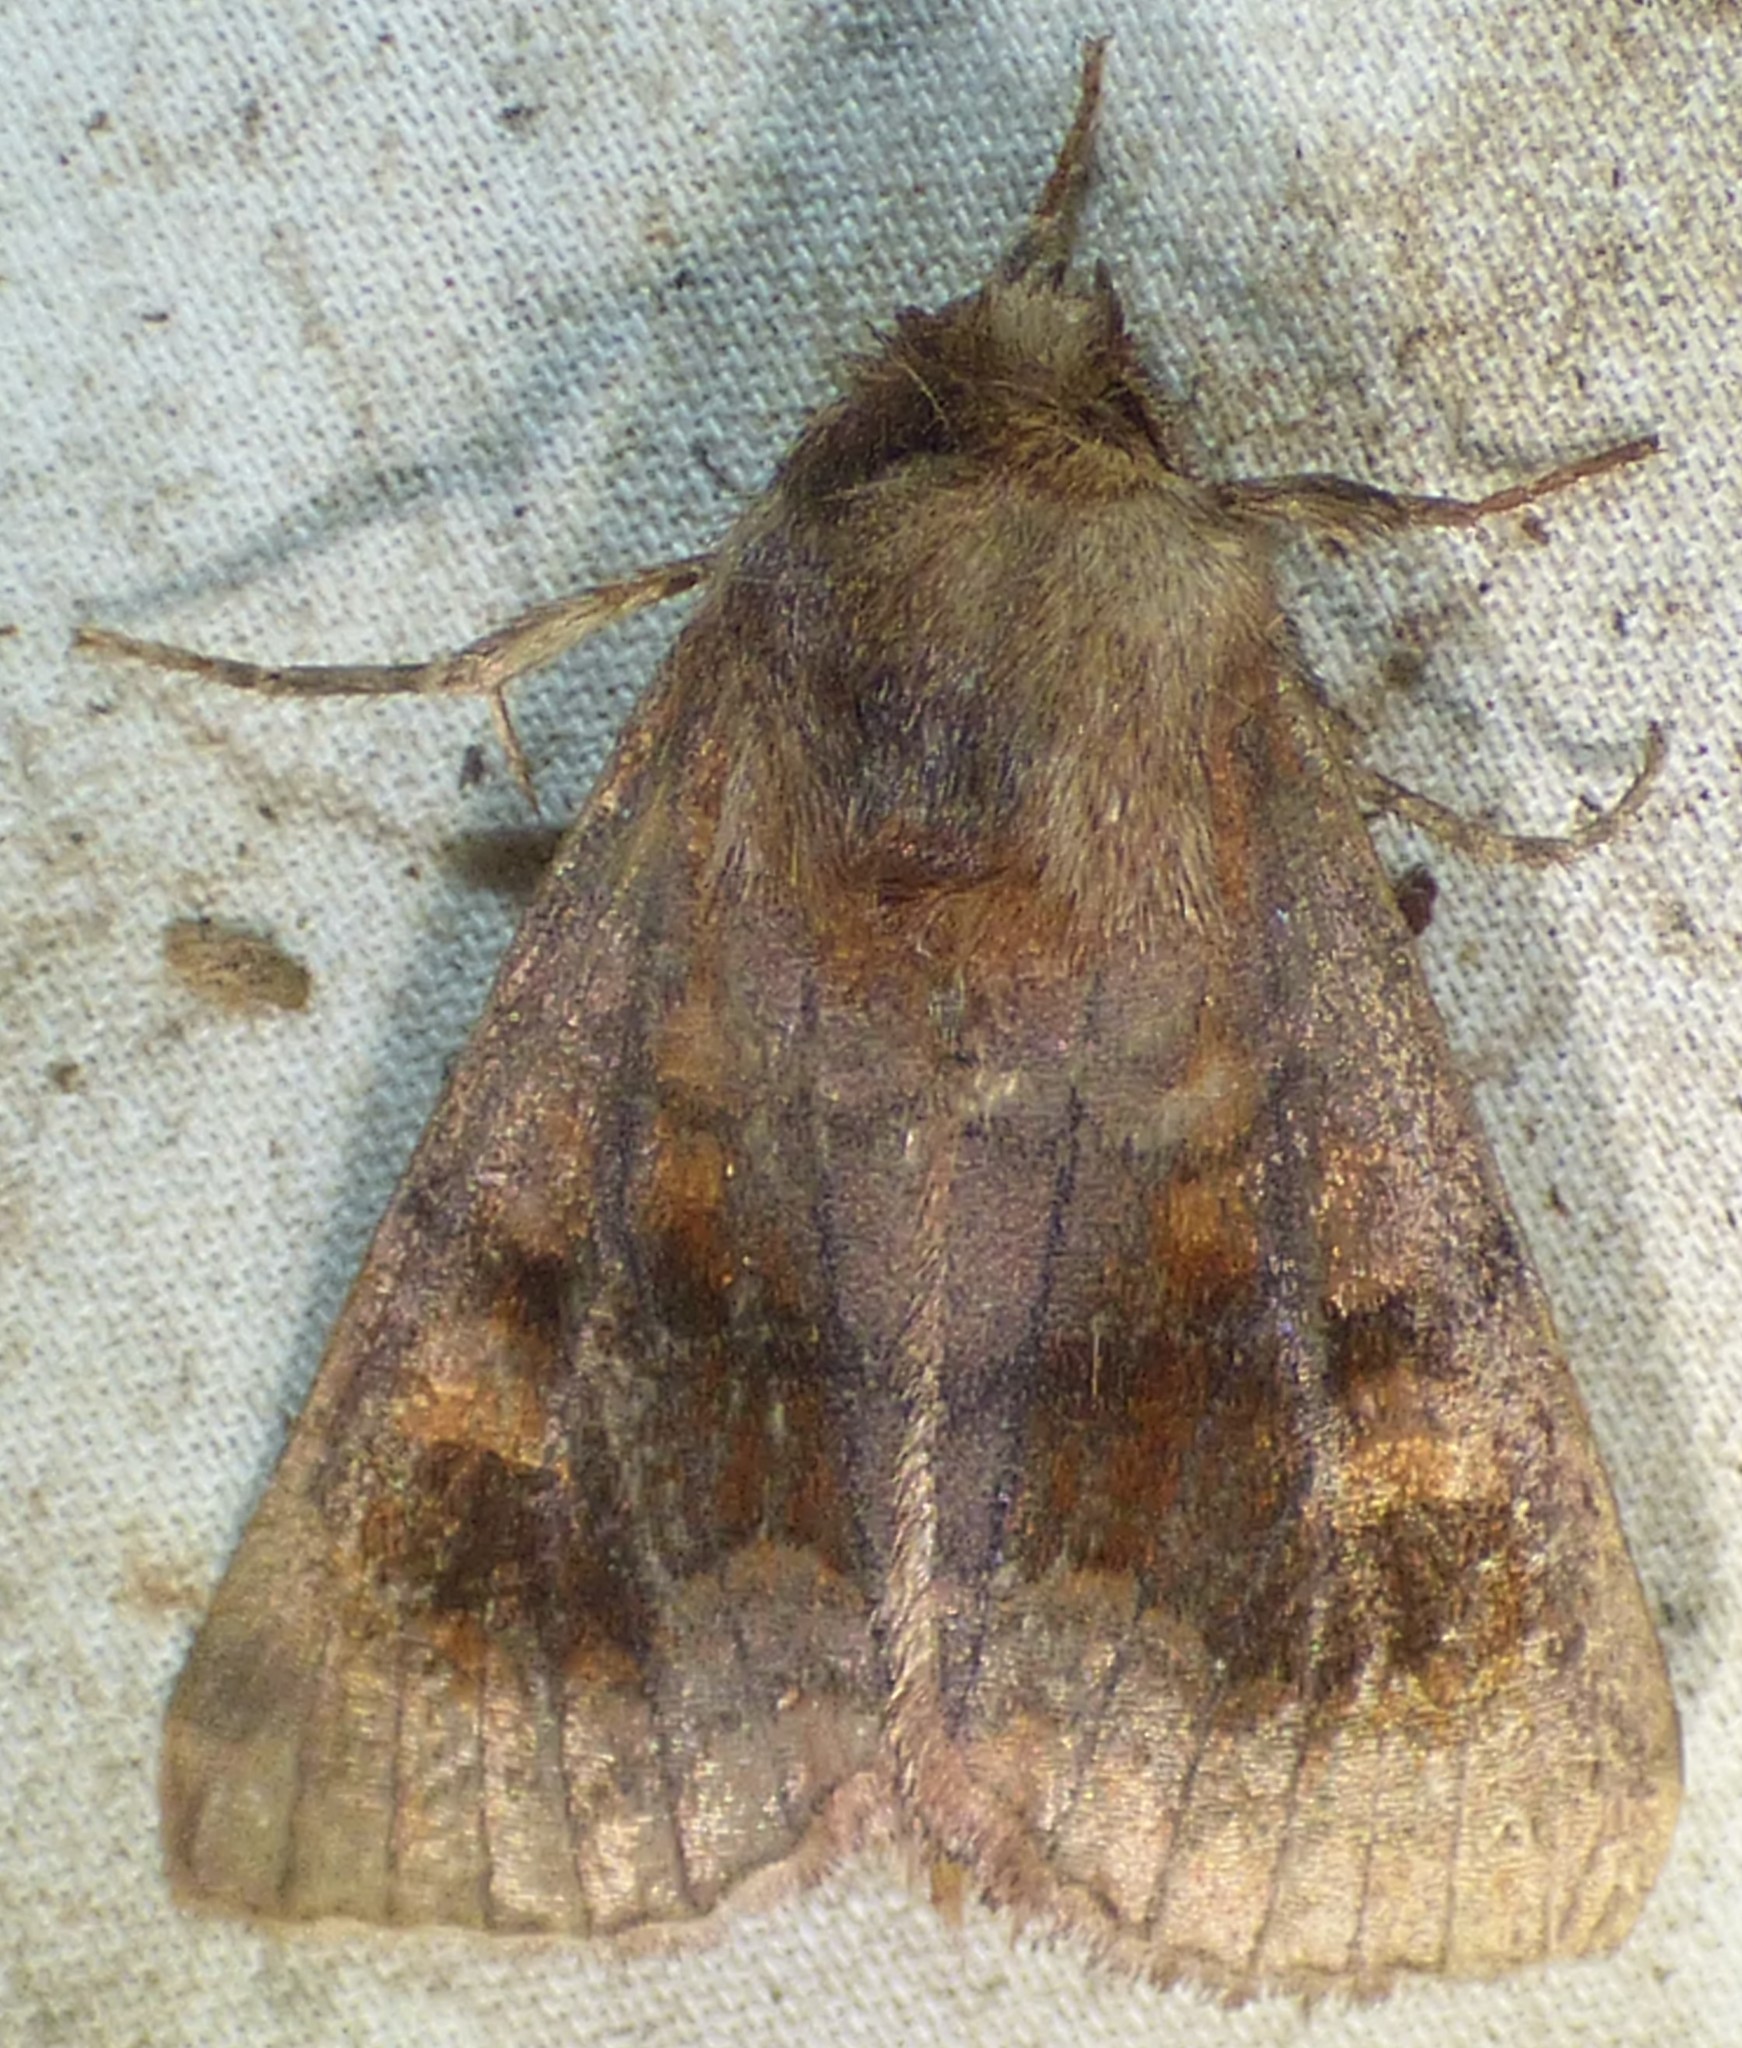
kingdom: Animalia
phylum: Arthropoda
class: Insecta
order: Lepidoptera
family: Noctuidae
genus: Nephelodes
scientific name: Nephelodes minians
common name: Bronzed cutworm
